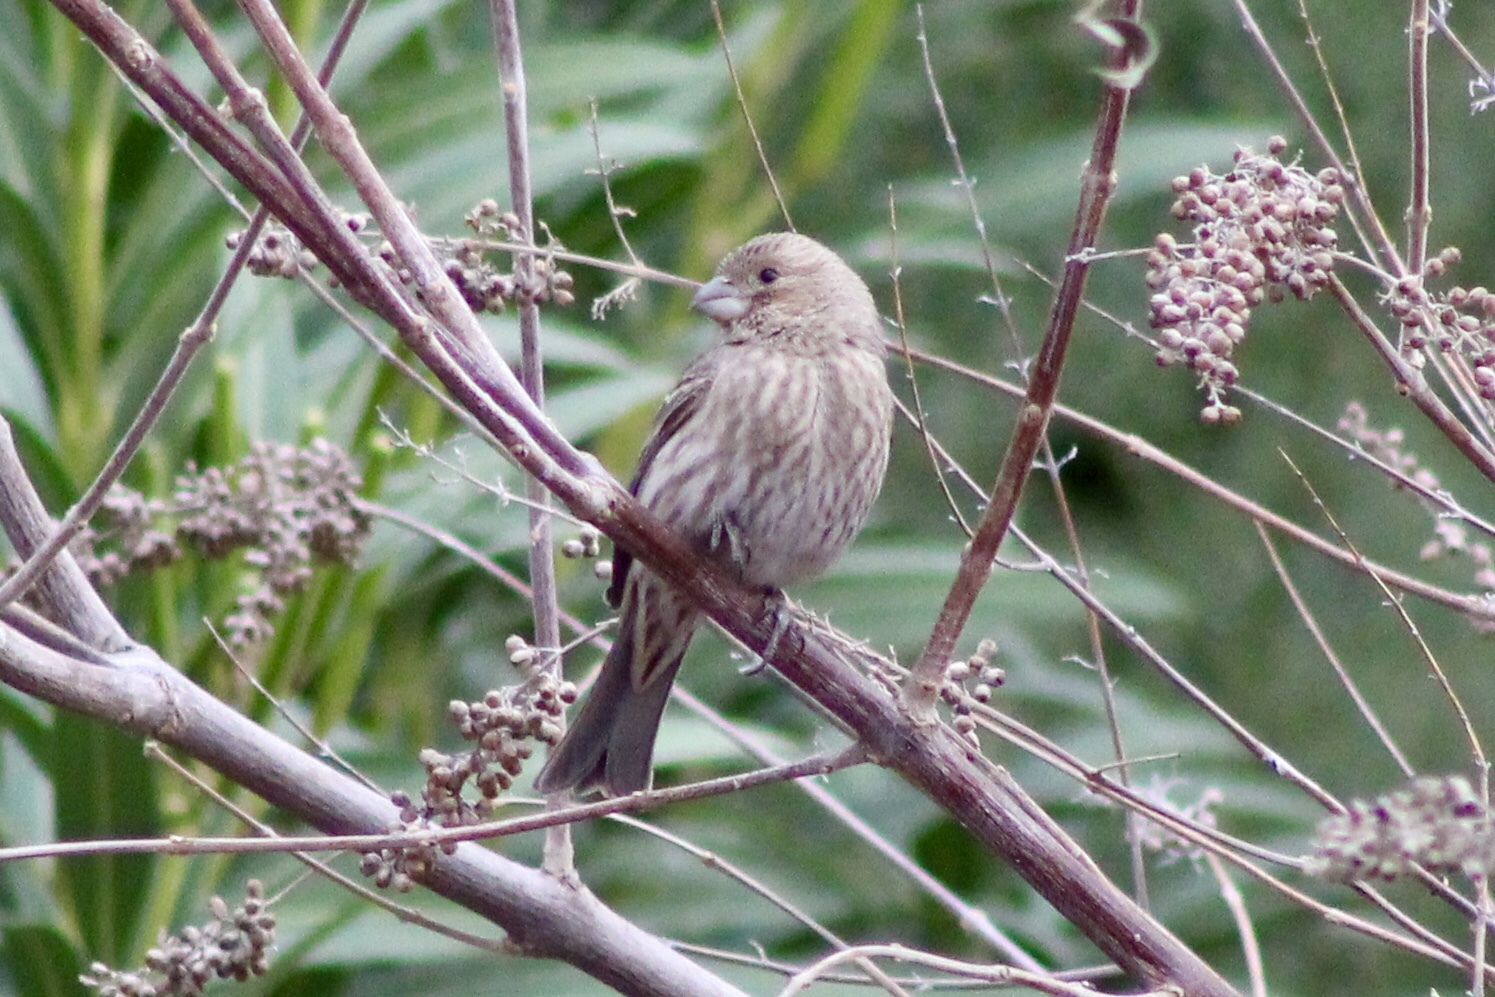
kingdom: Animalia
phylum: Chordata
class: Aves
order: Passeriformes
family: Fringillidae
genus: Haemorhous
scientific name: Haemorhous mexicanus
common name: House finch
